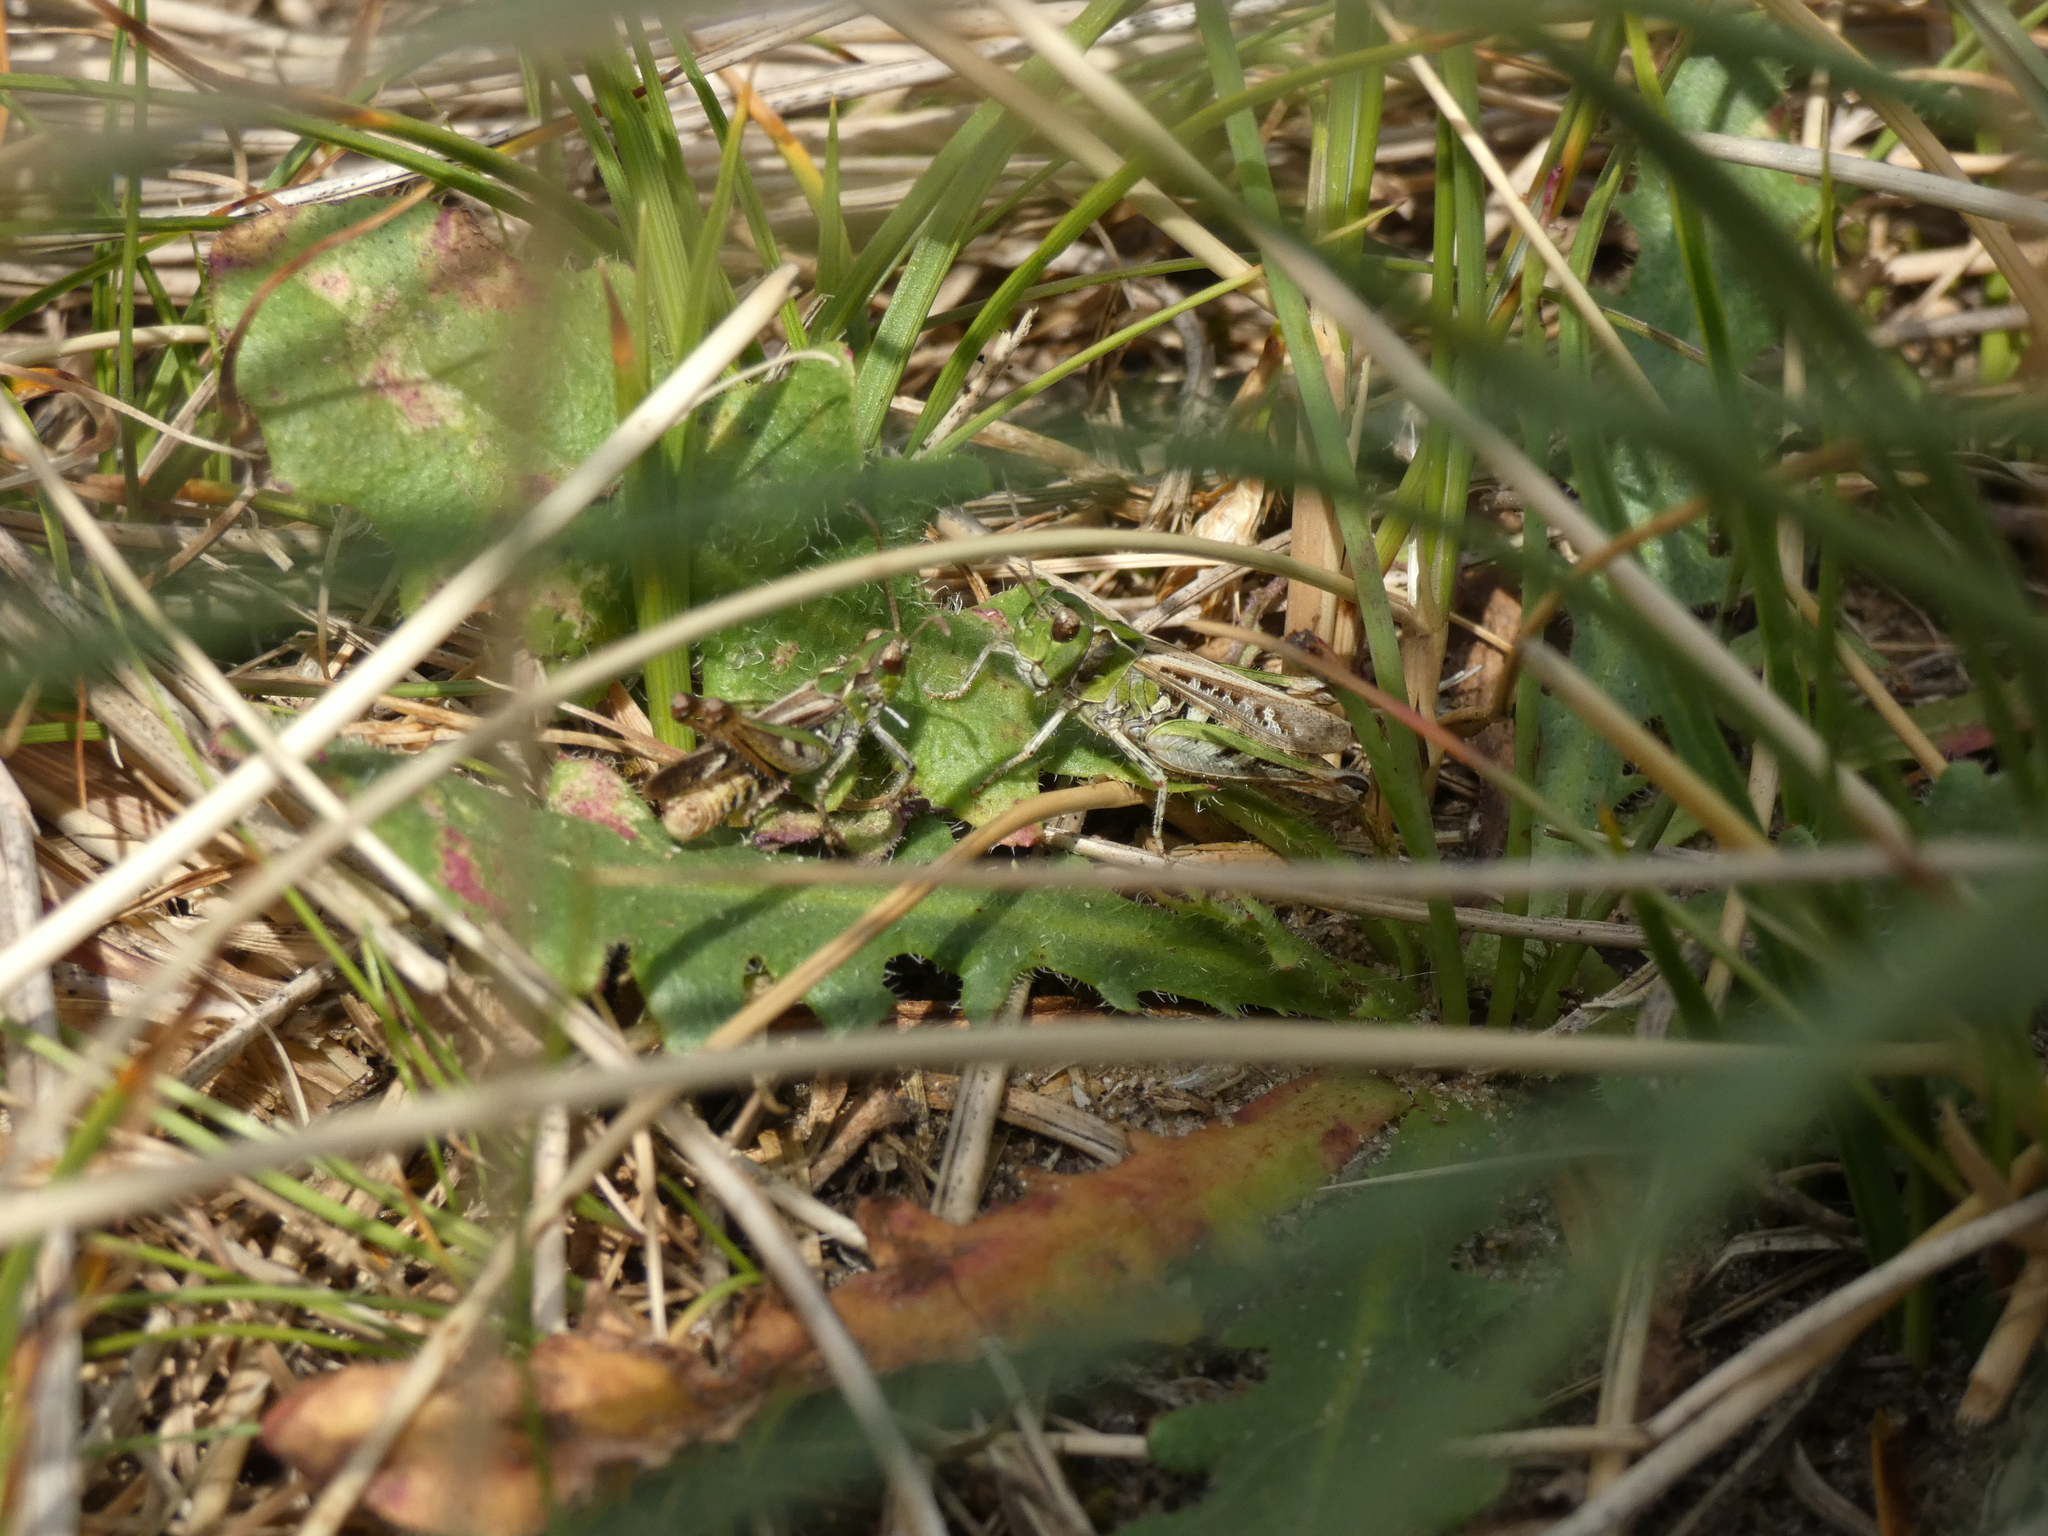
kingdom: Animalia
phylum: Arthropoda
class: Insecta
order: Orthoptera
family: Acrididae
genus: Myrmeleotettix
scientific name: Myrmeleotettix maculatus
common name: Mottled grasshopper
